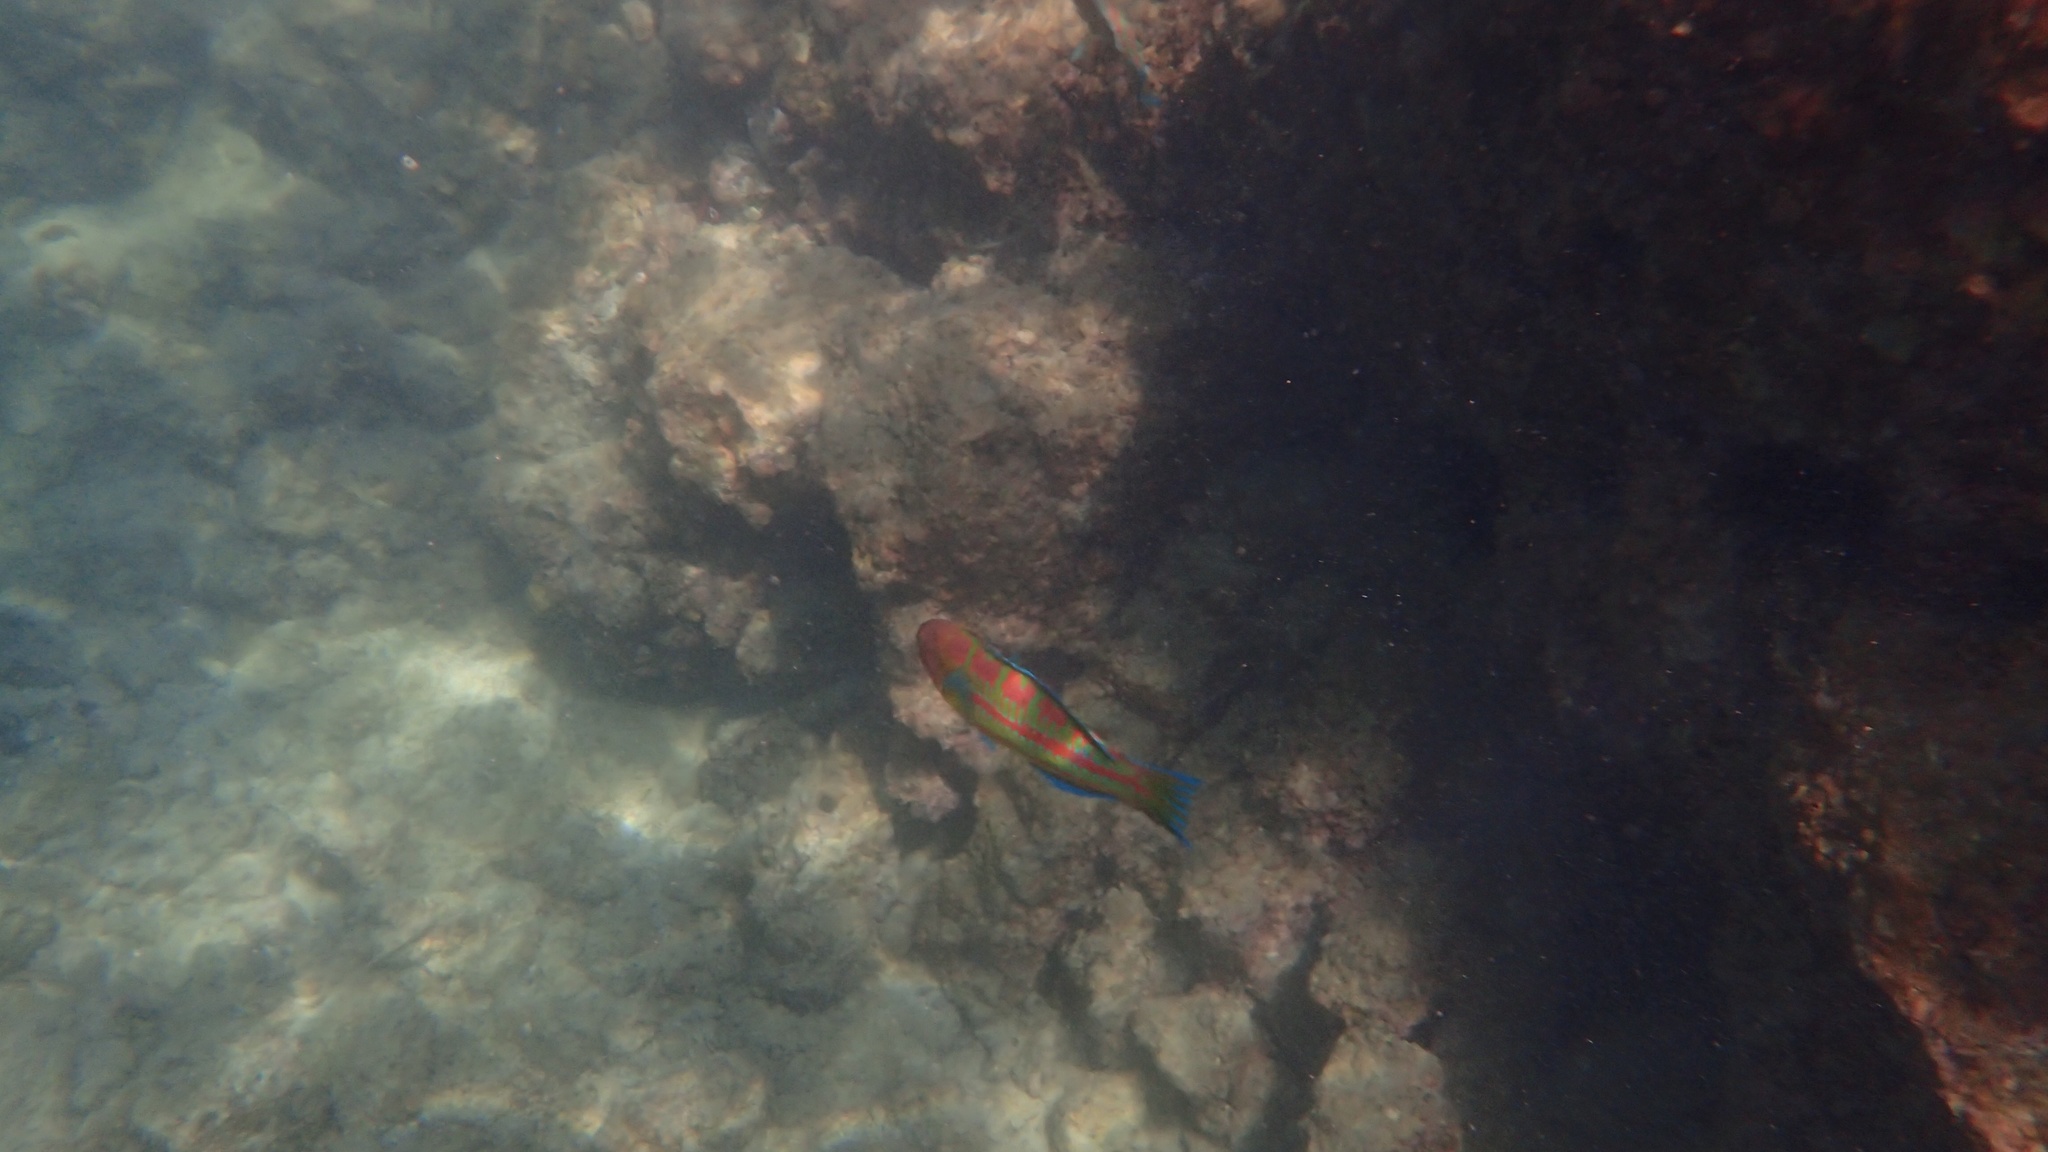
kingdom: Animalia
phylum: Chordata
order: Perciformes
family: Labridae
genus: Thalassoma
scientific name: Thalassoma trilobatum
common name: Christmas wrasse
